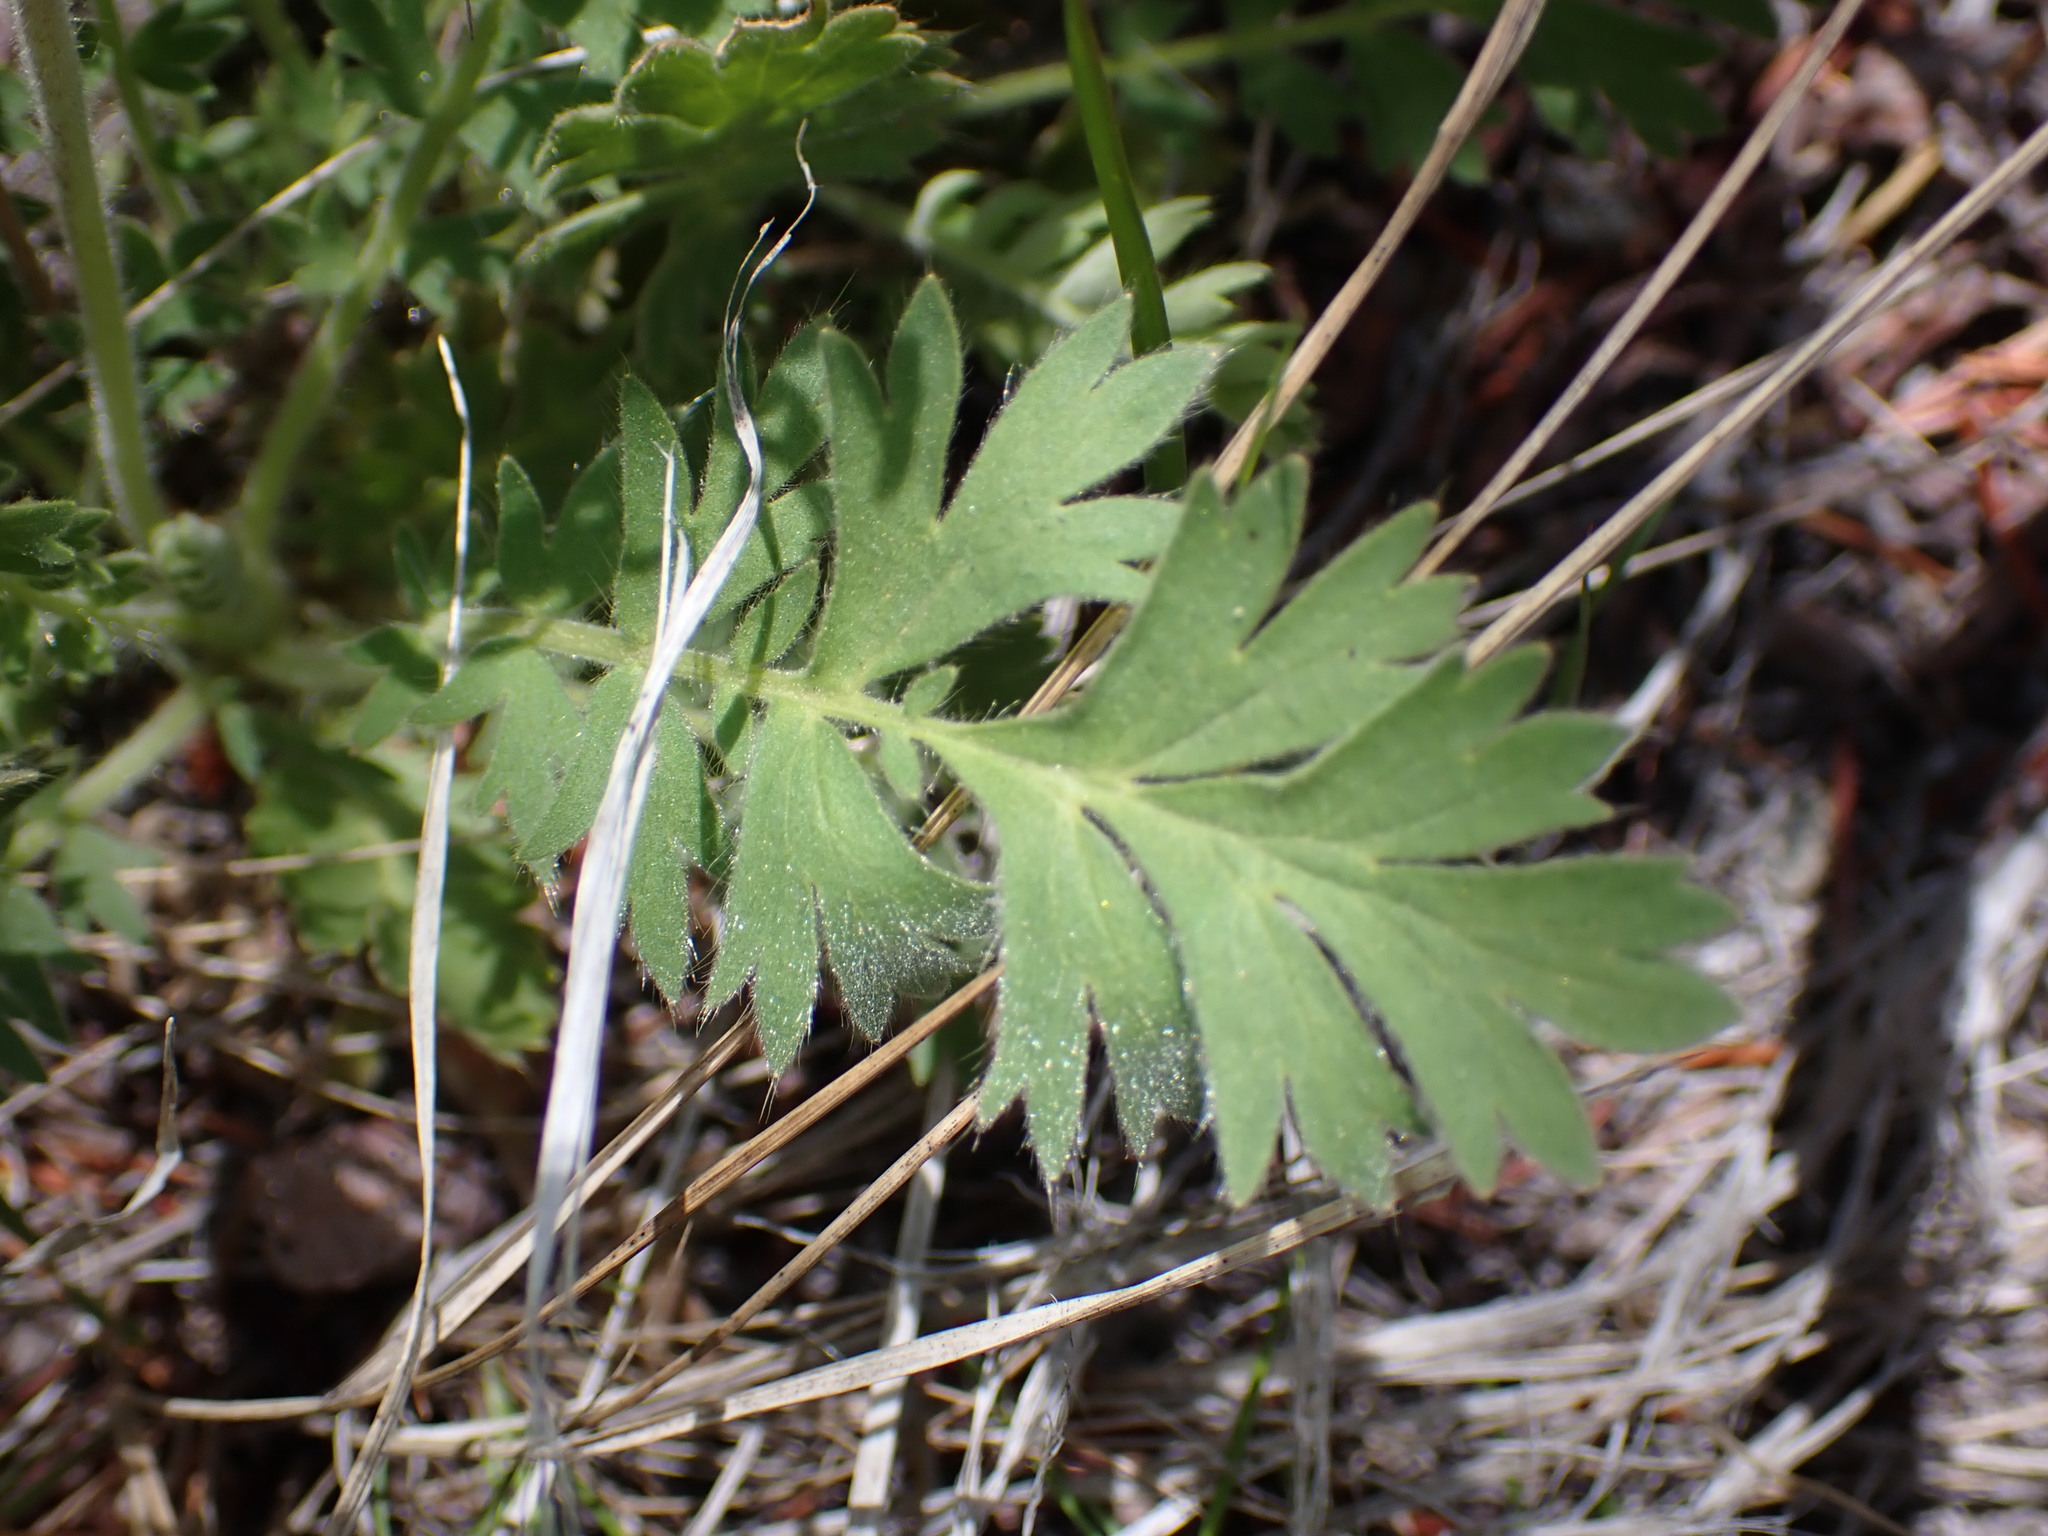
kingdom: Plantae
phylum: Tracheophyta
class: Magnoliopsida
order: Rosales
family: Rosaceae
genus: Geum
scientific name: Geum triflorum
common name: Old man's whiskers
